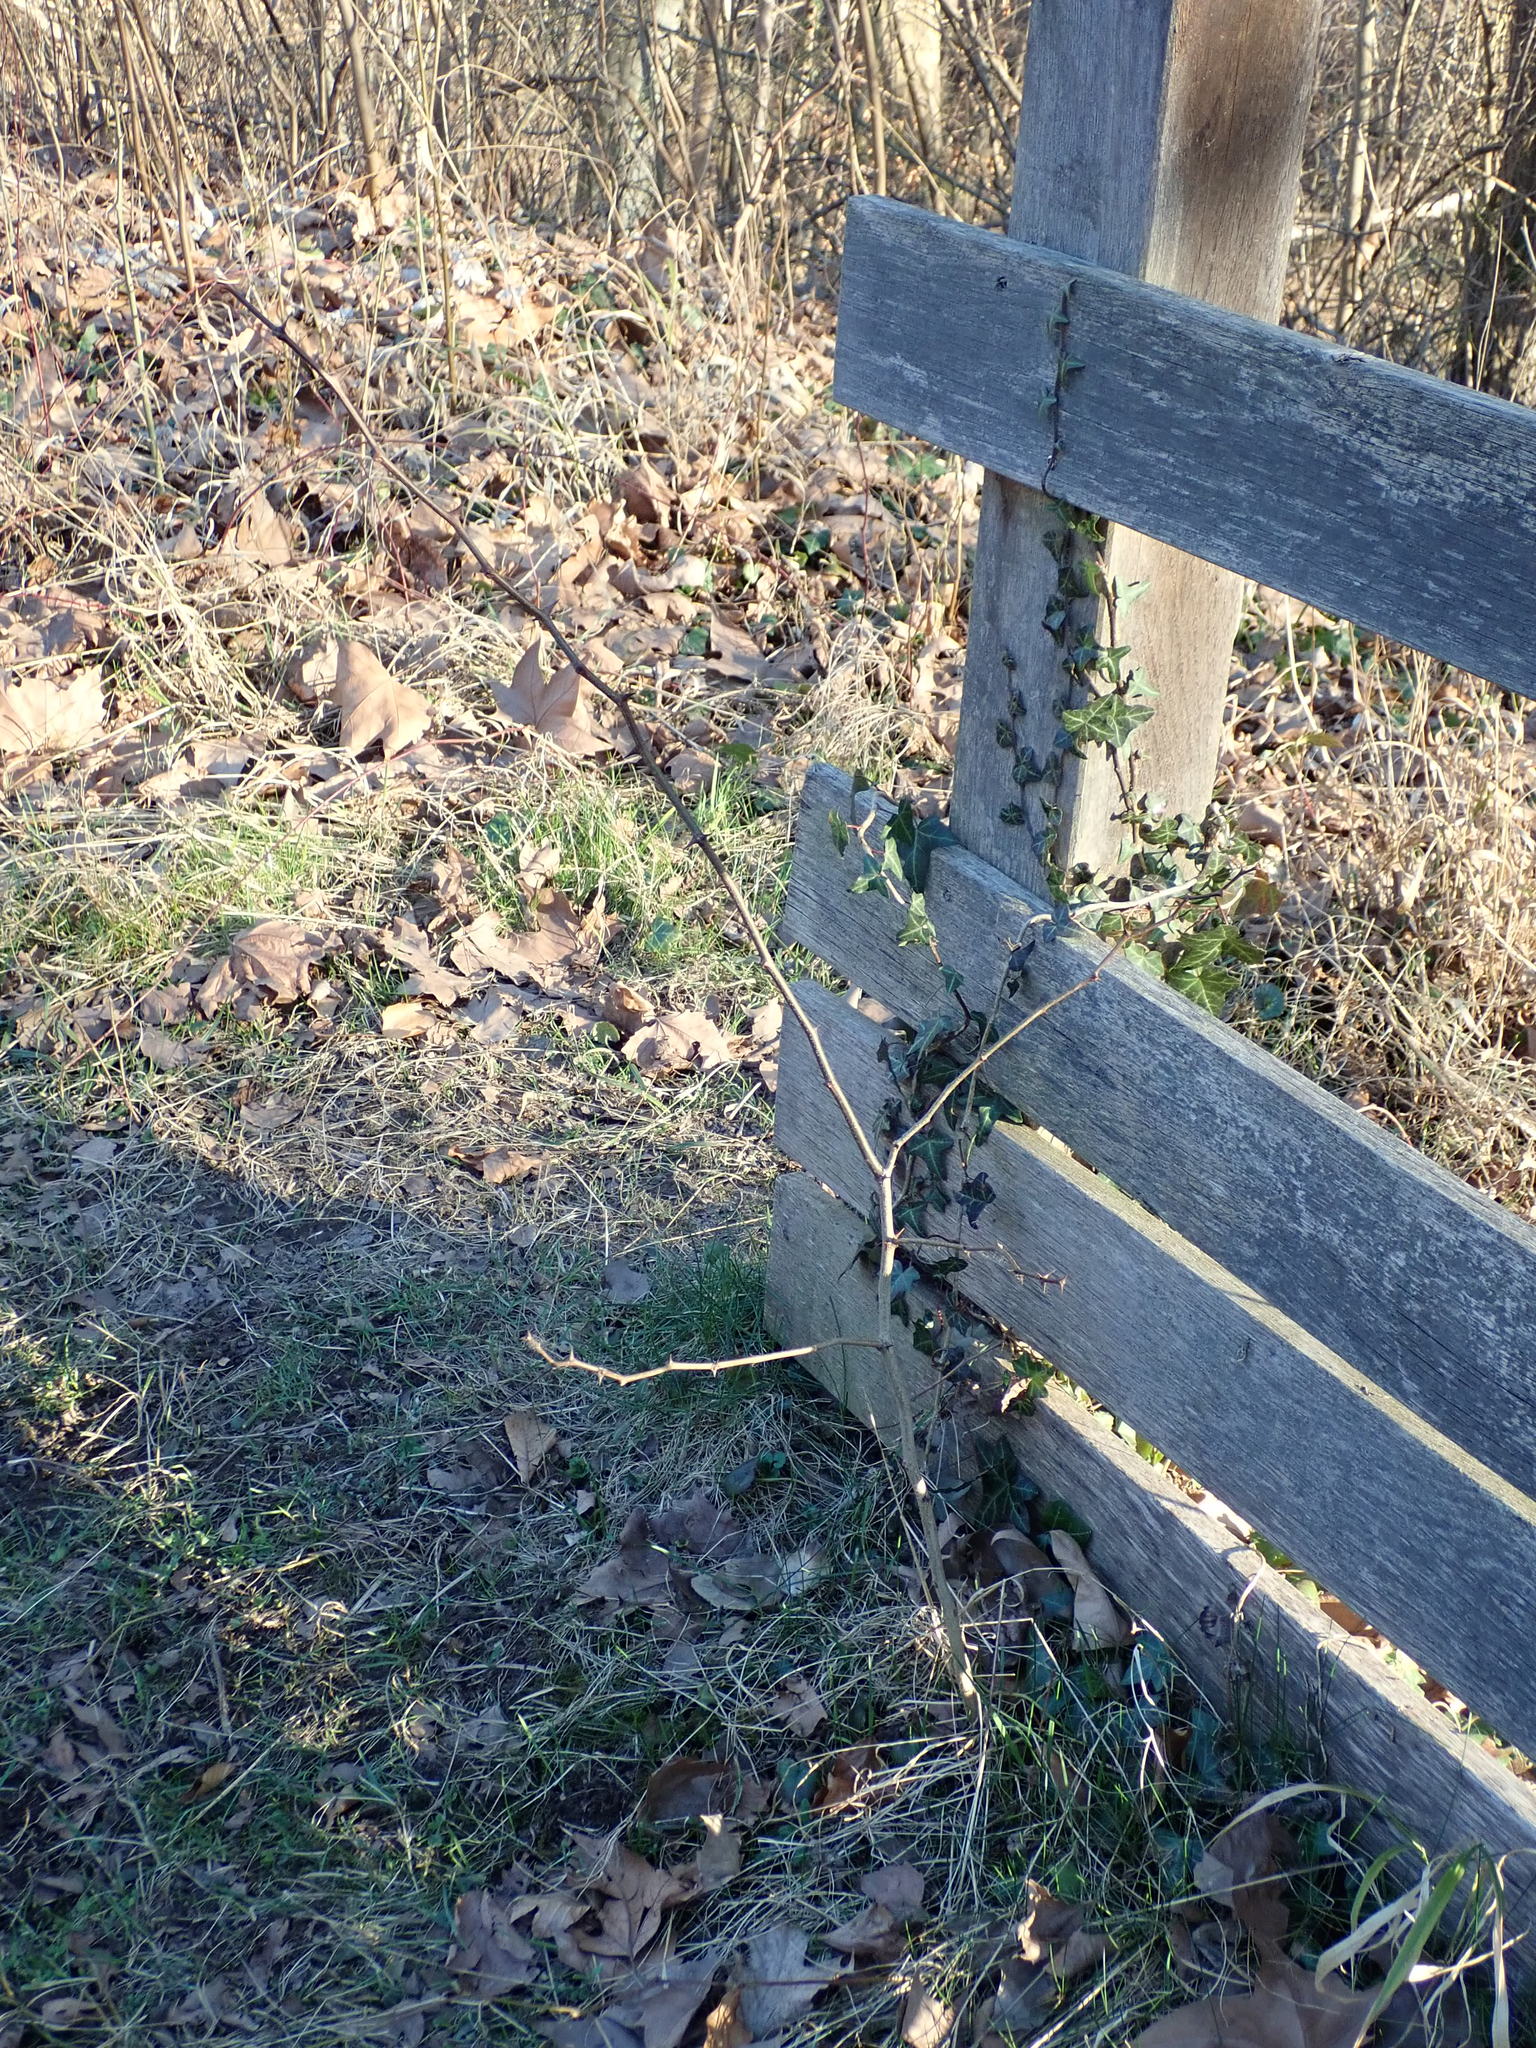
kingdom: Plantae
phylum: Tracheophyta
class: Magnoliopsida
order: Fabales
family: Fabaceae
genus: Robinia
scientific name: Robinia pseudoacacia
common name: Black locust
